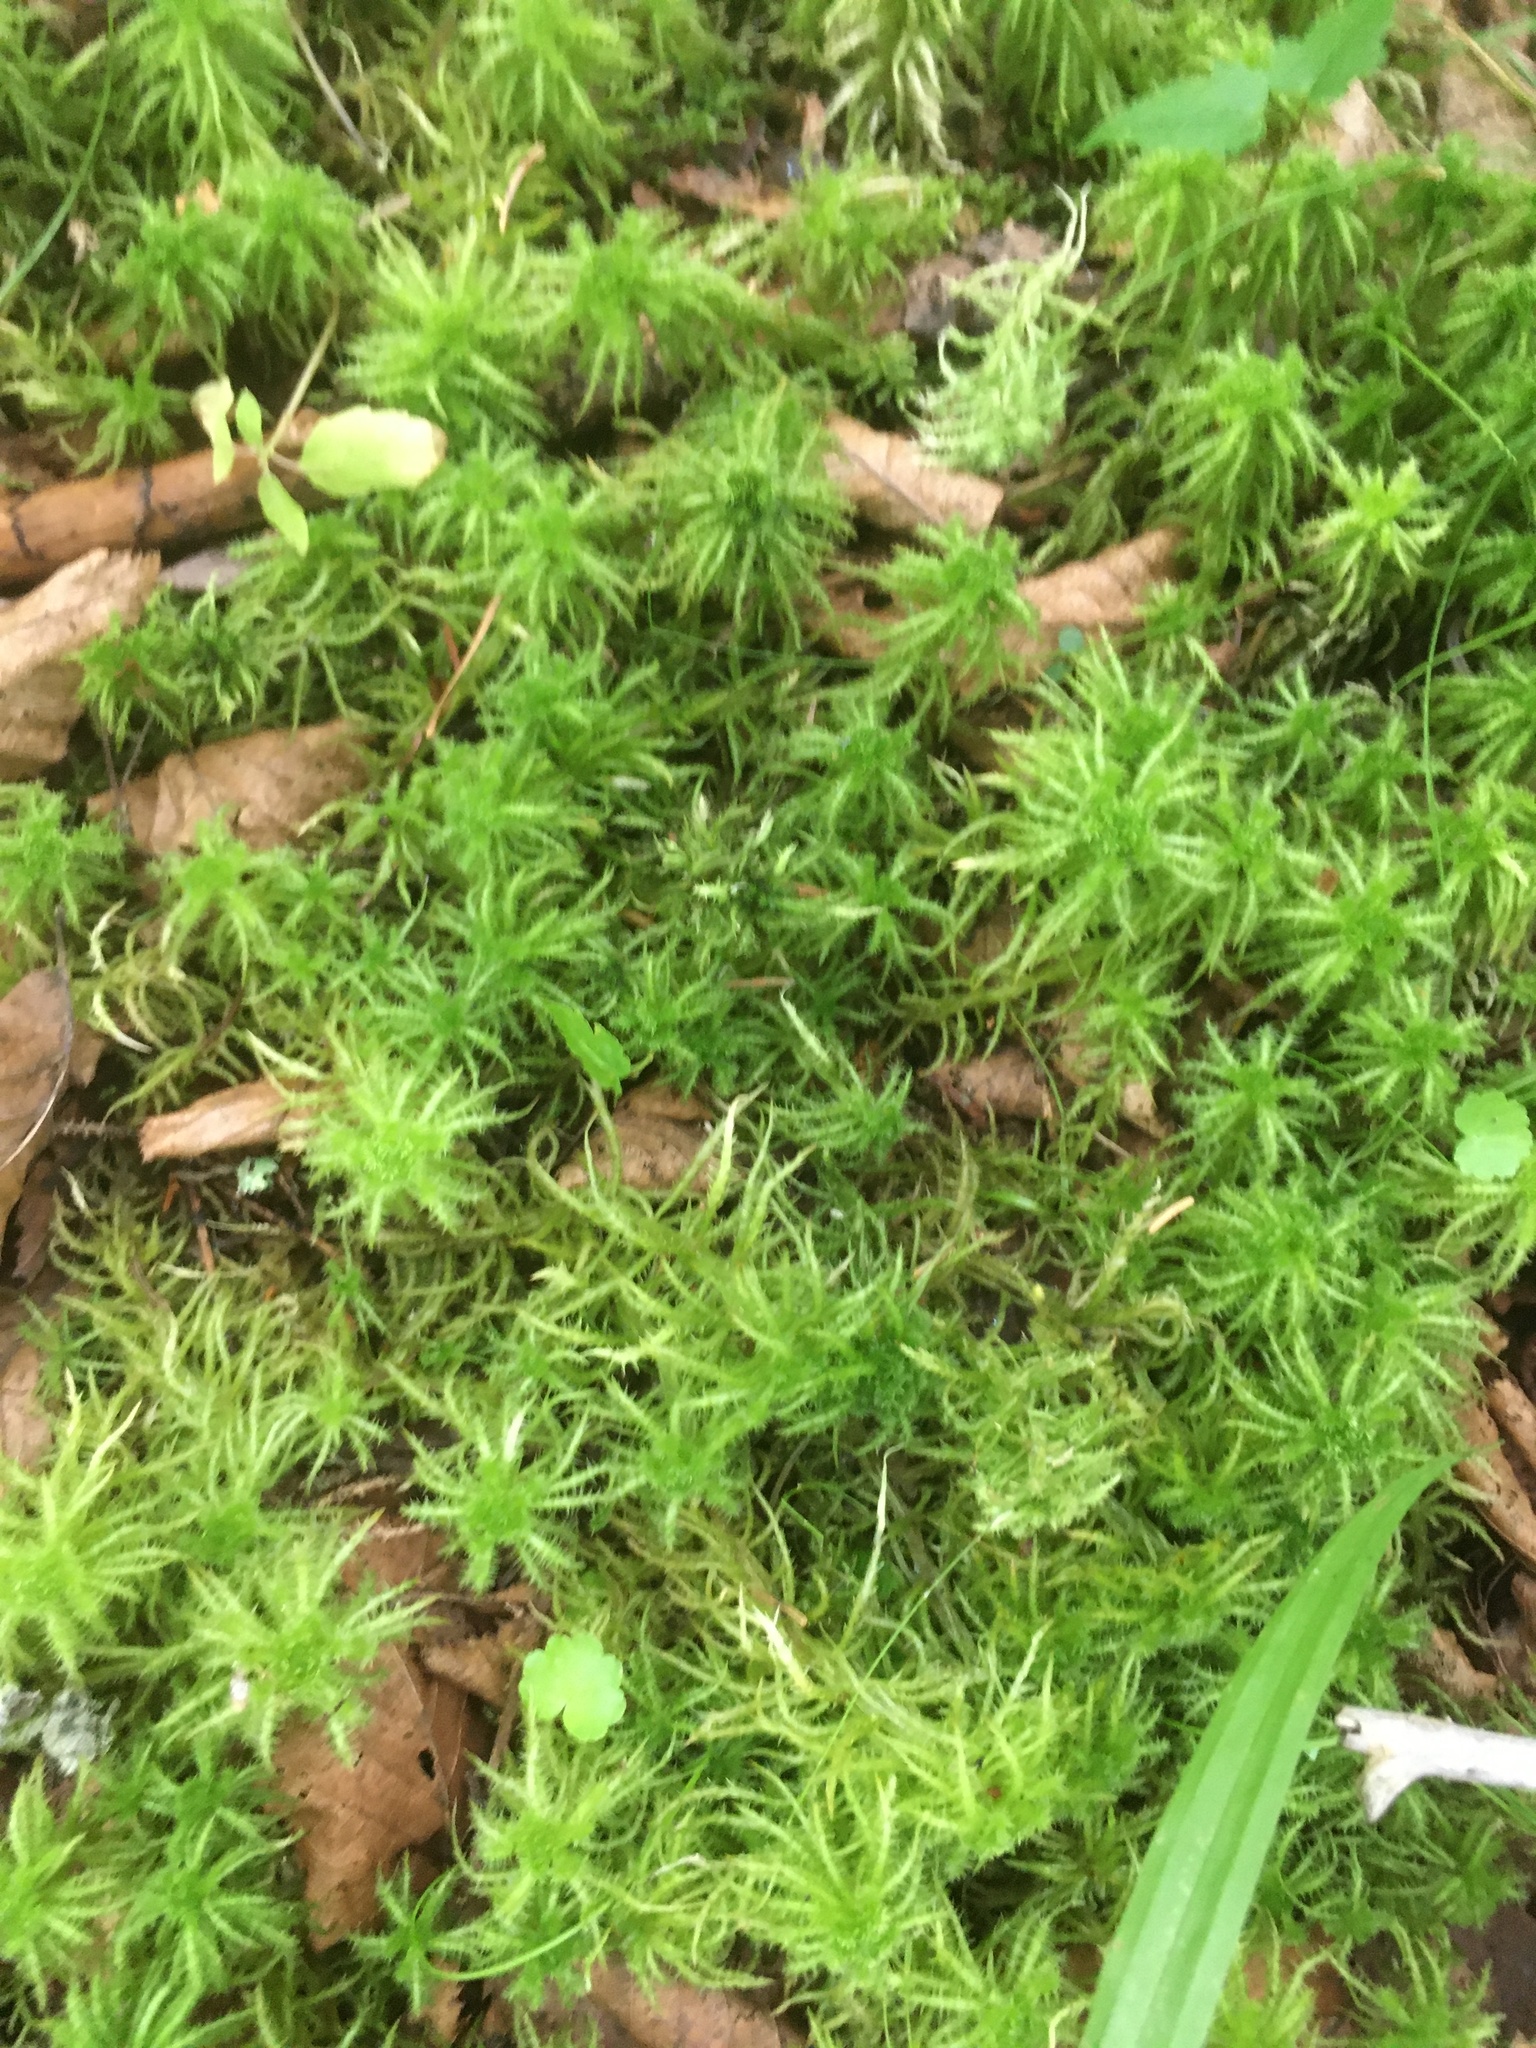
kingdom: Plantae
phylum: Bryophyta
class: Sphagnopsida
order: Sphagnales
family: Sphagnaceae
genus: Sphagnum
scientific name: Sphagnum squarrosum
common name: Shaggy peat moss
